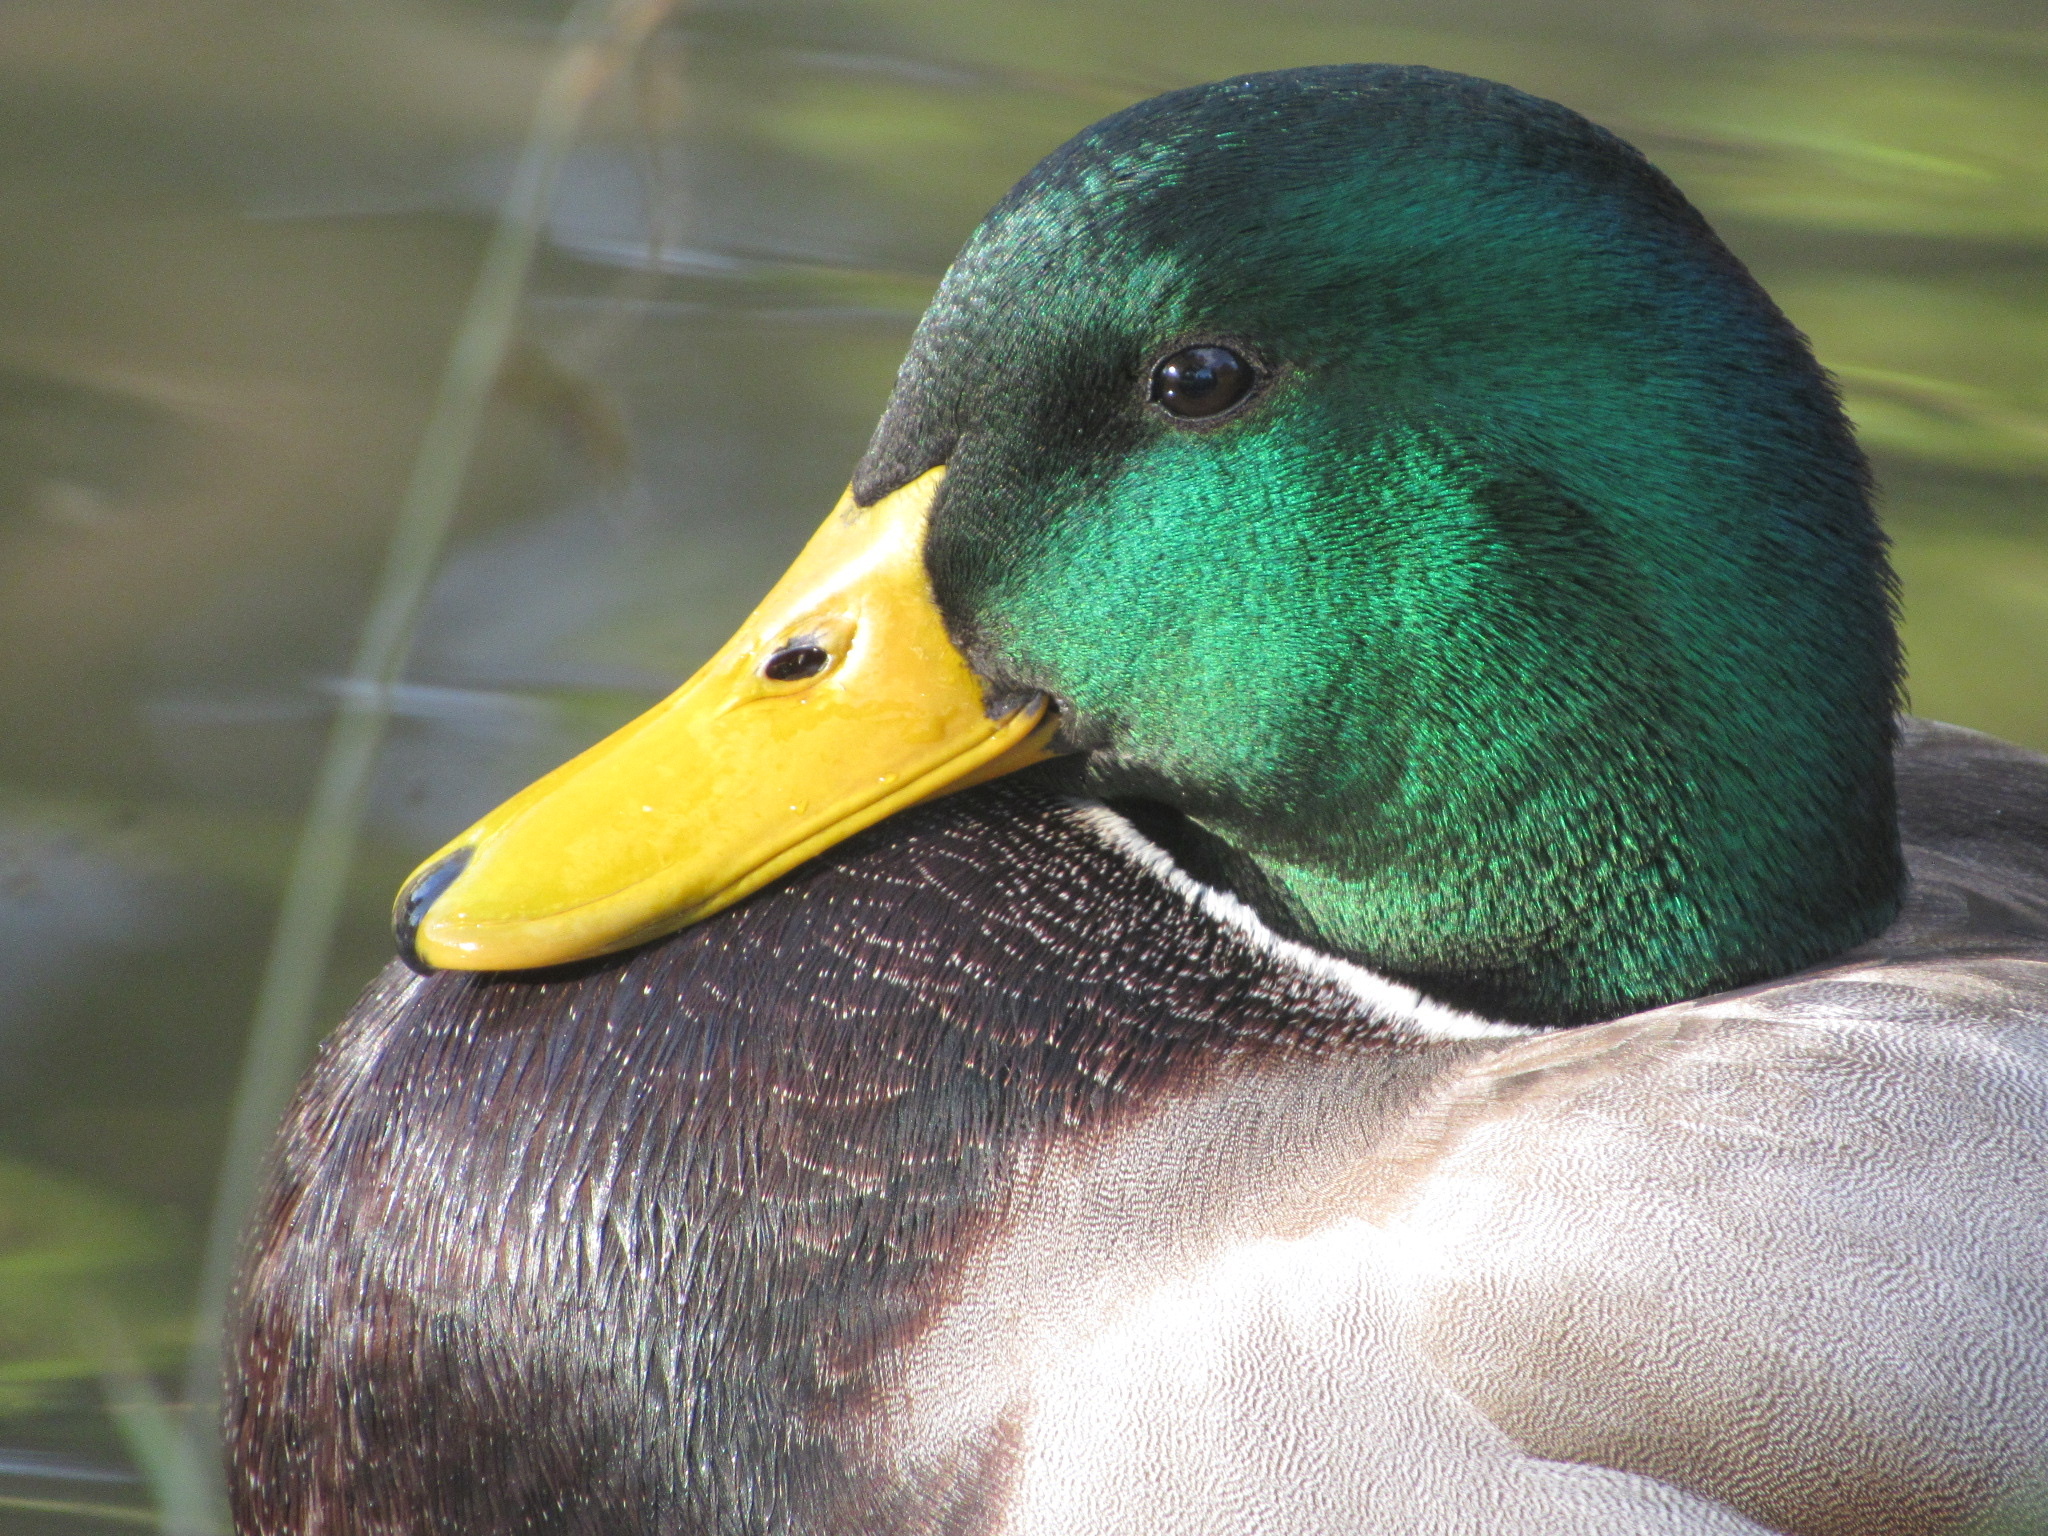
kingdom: Animalia
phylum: Chordata
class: Aves
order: Anseriformes
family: Anatidae
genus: Anas
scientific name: Anas platyrhynchos
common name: Mallard
